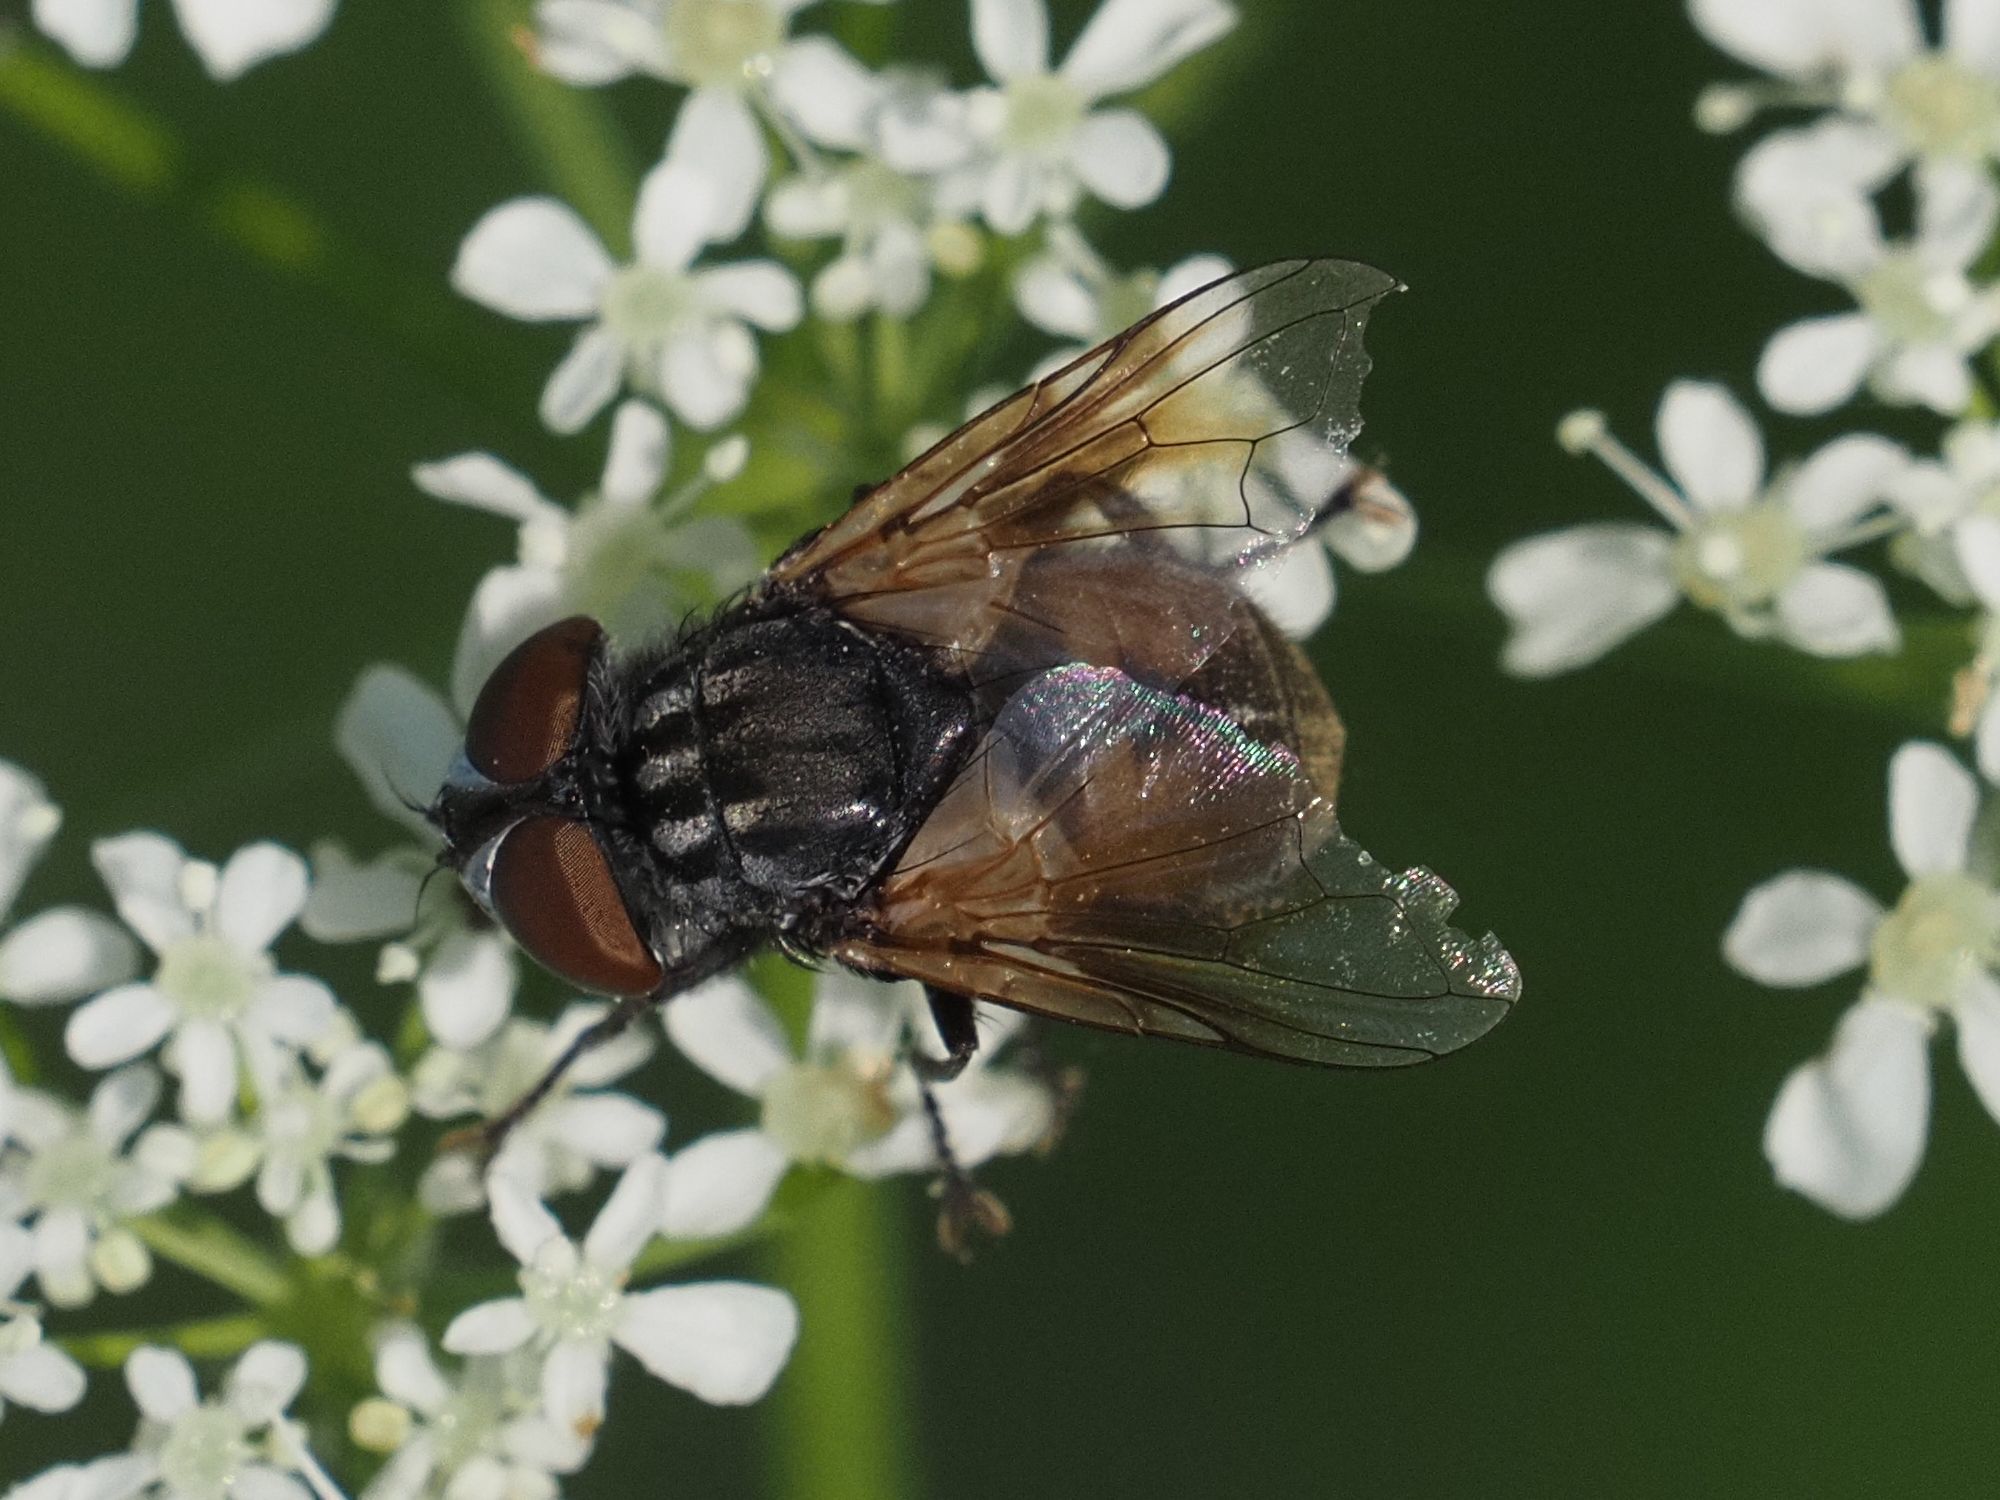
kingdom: Animalia
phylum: Arthropoda
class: Insecta
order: Diptera
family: Tachinidae
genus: Phasia
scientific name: Phasia subcoleoptrata
